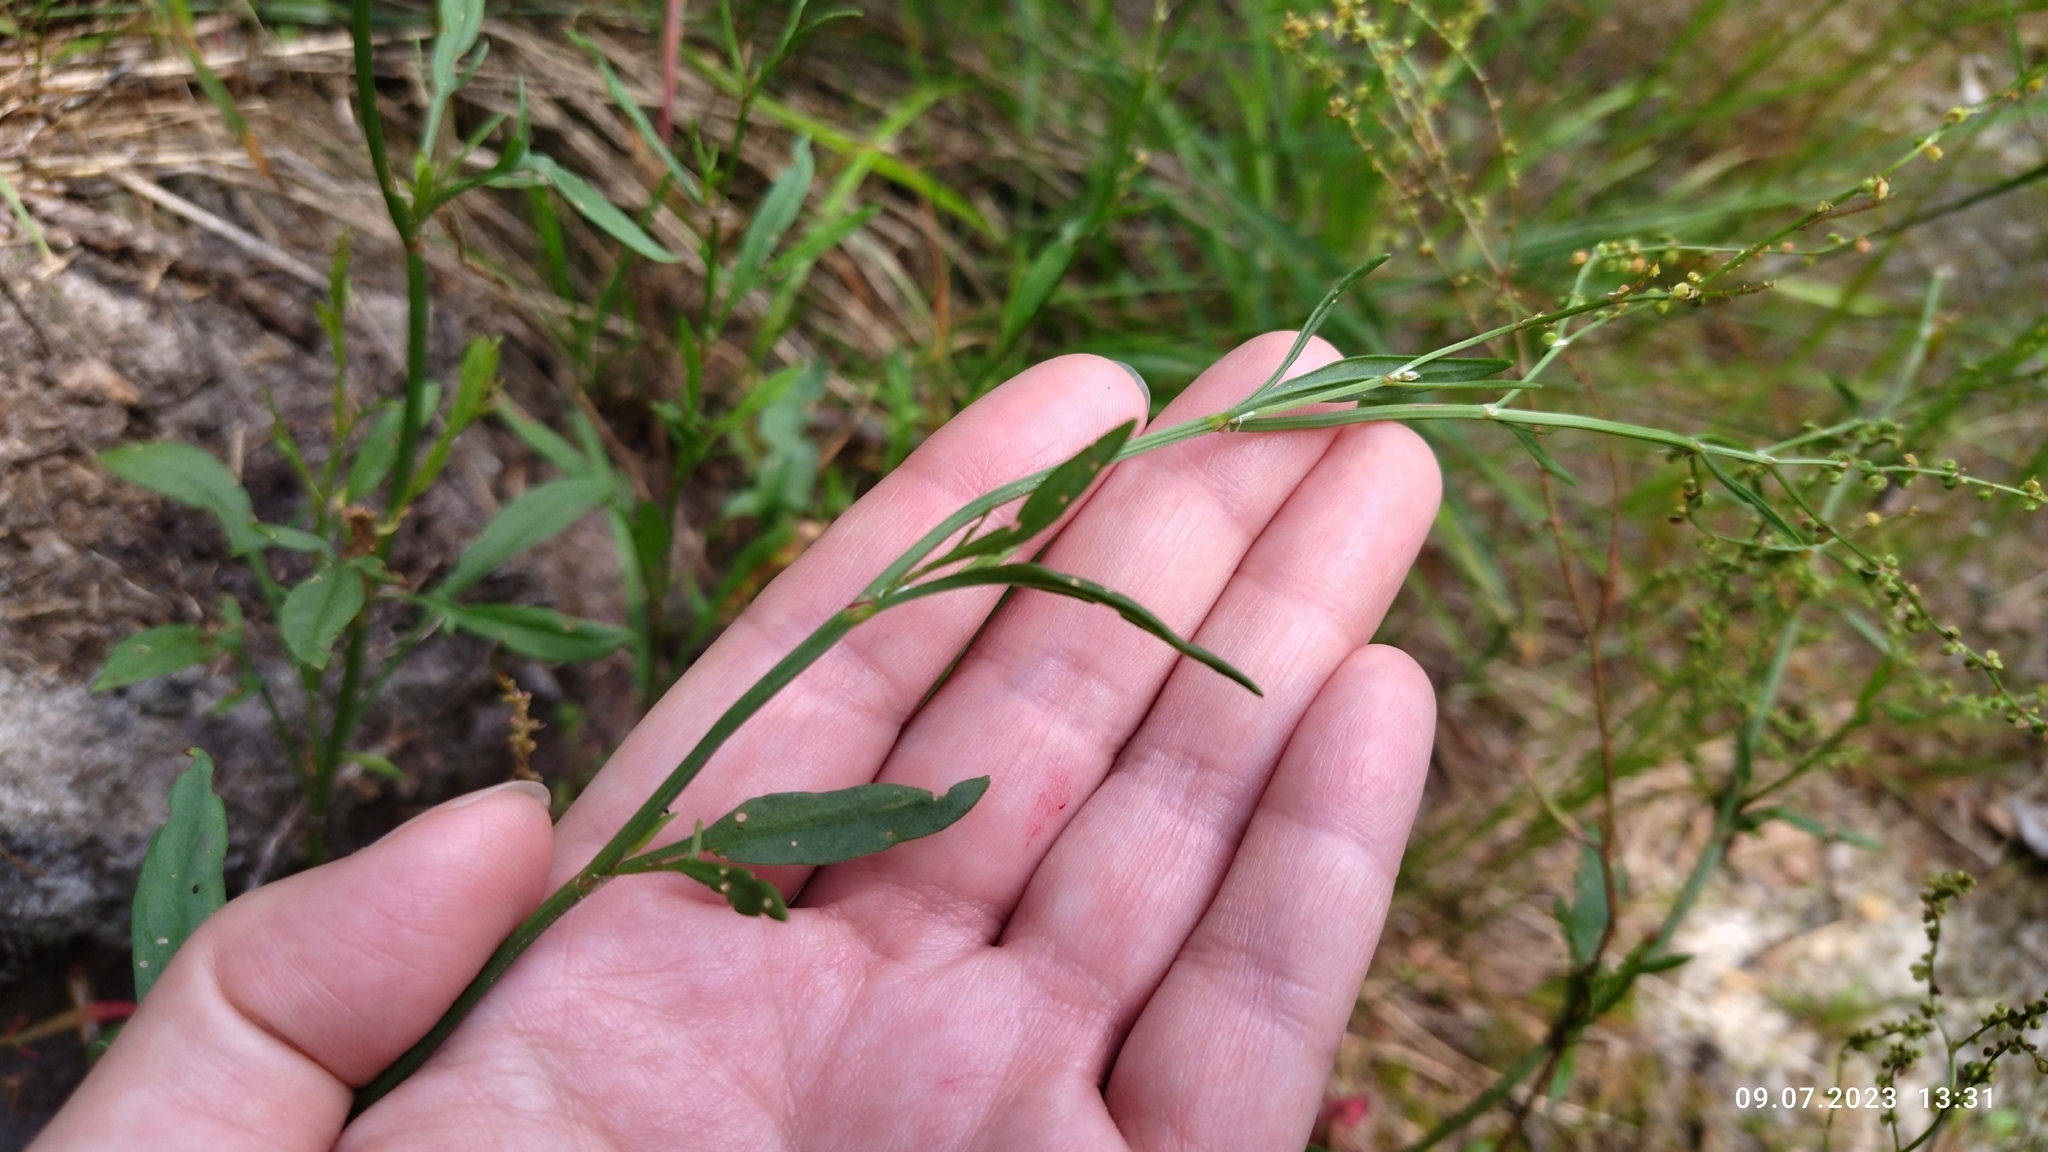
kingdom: Plantae
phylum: Tracheophyta
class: Magnoliopsida
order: Caryophyllales
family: Polygonaceae
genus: Rumex
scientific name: Rumex acetosella
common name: Common sheep sorrel
